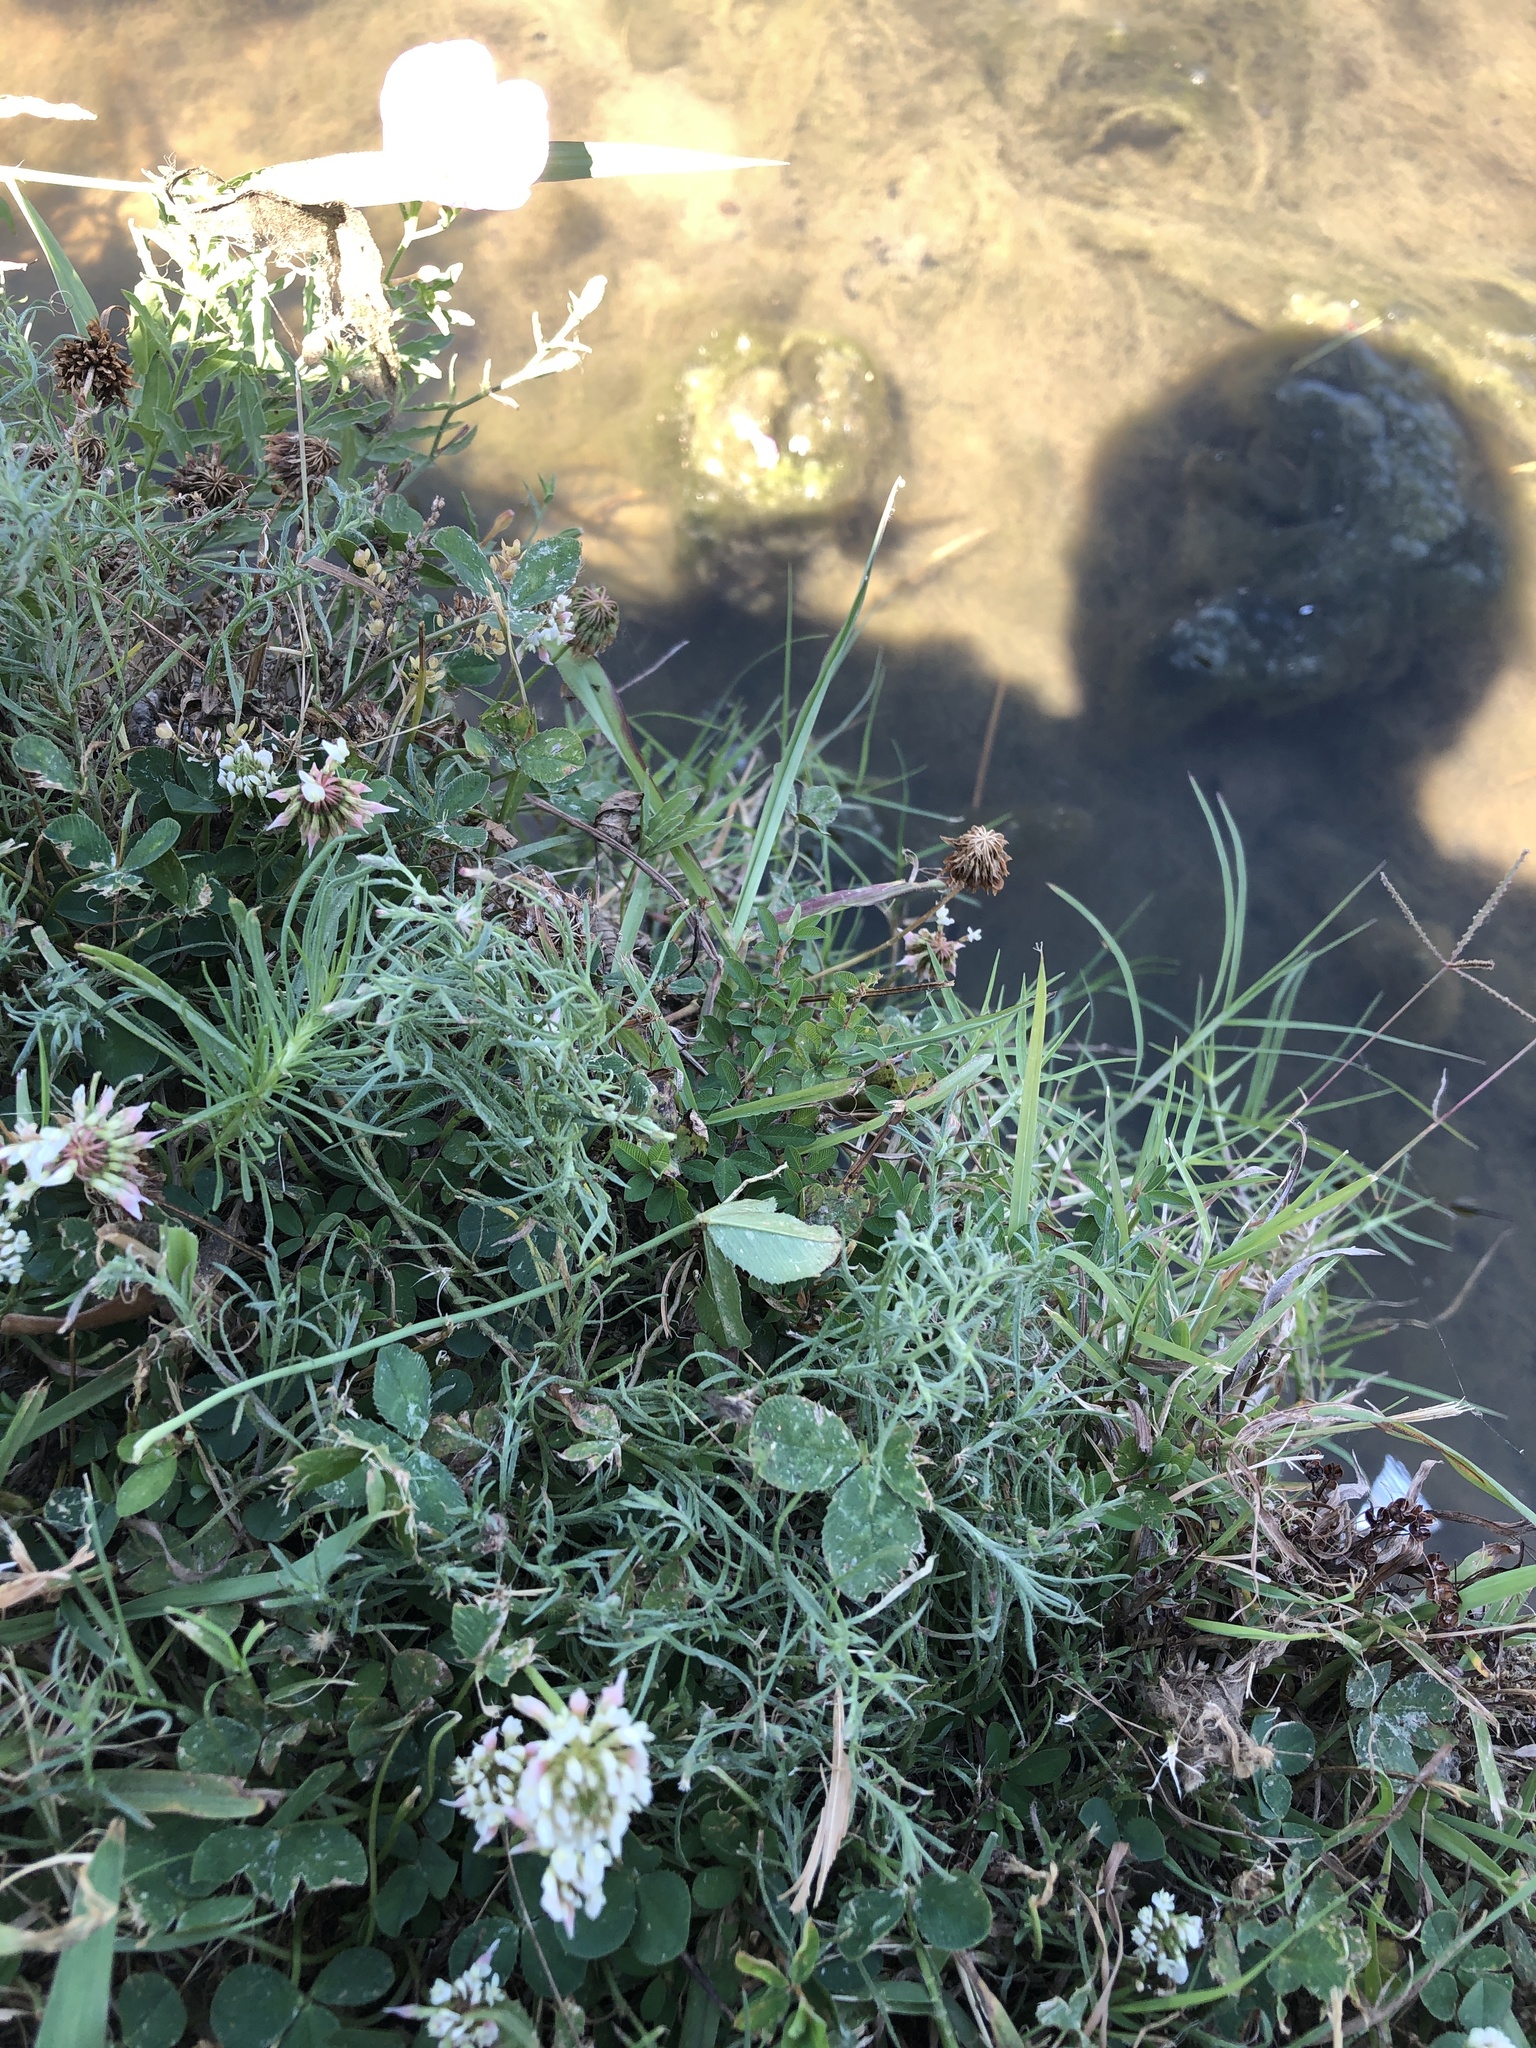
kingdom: Plantae
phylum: Tracheophyta
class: Magnoliopsida
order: Asterales
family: Asteraceae
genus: Erigeron
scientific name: Erigeron divaricatus
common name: Dwarf conyza
